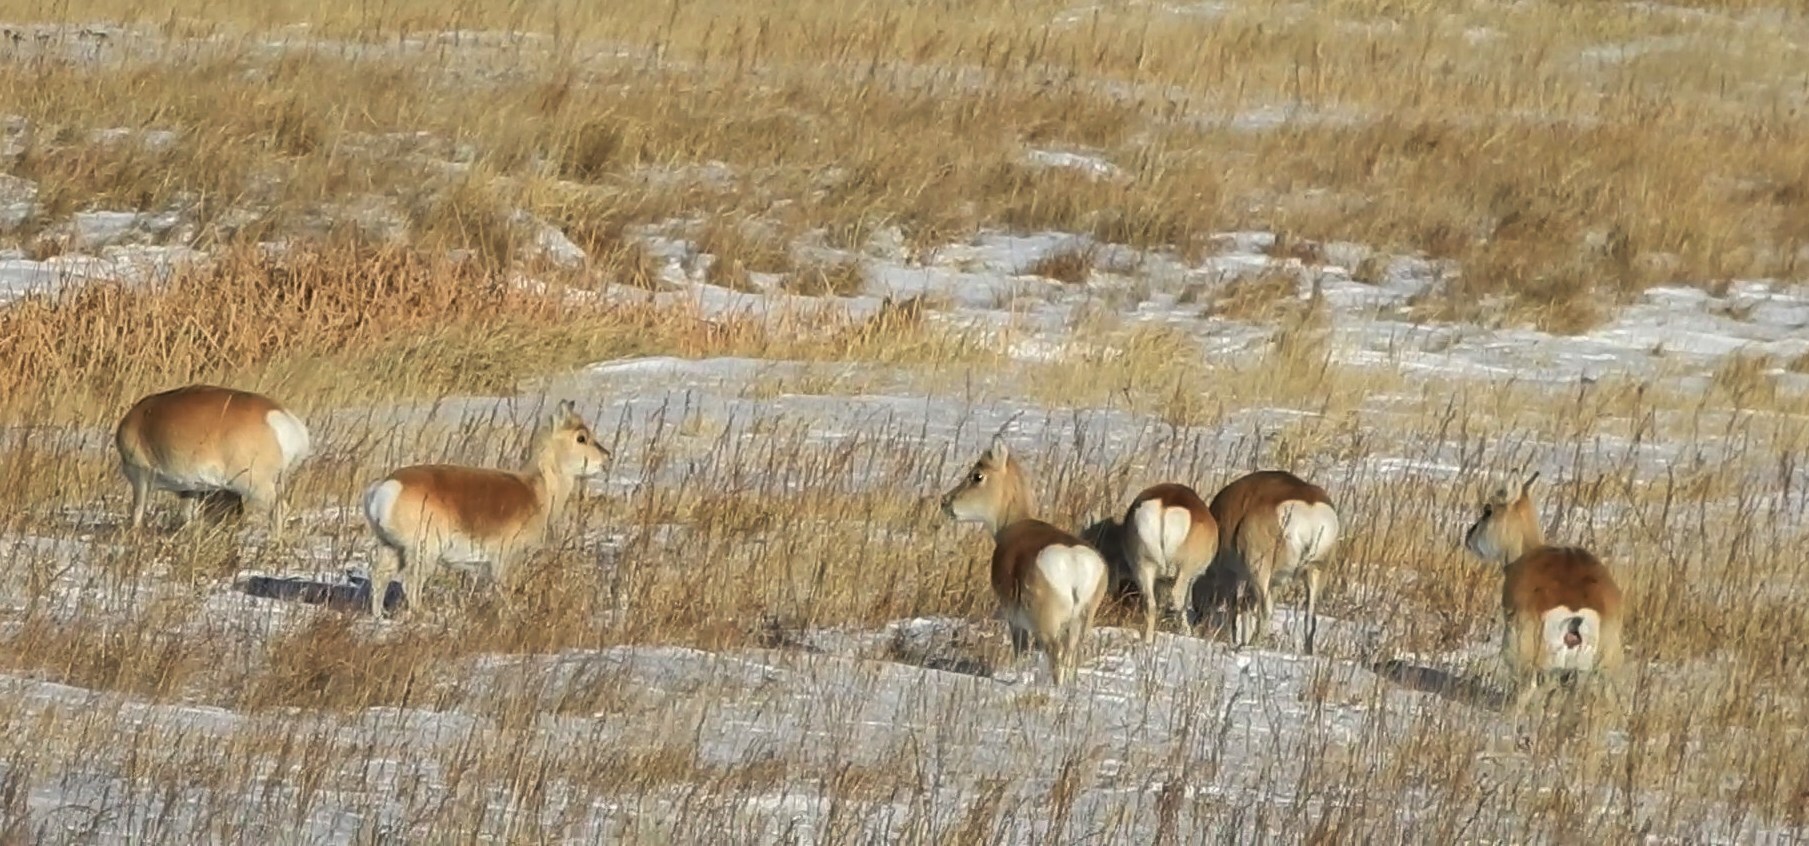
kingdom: Animalia
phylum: Chordata
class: Mammalia
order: Artiodactyla
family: Bovidae
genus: Procapra
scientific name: Procapra gutturosa
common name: Mongolian gazelle
